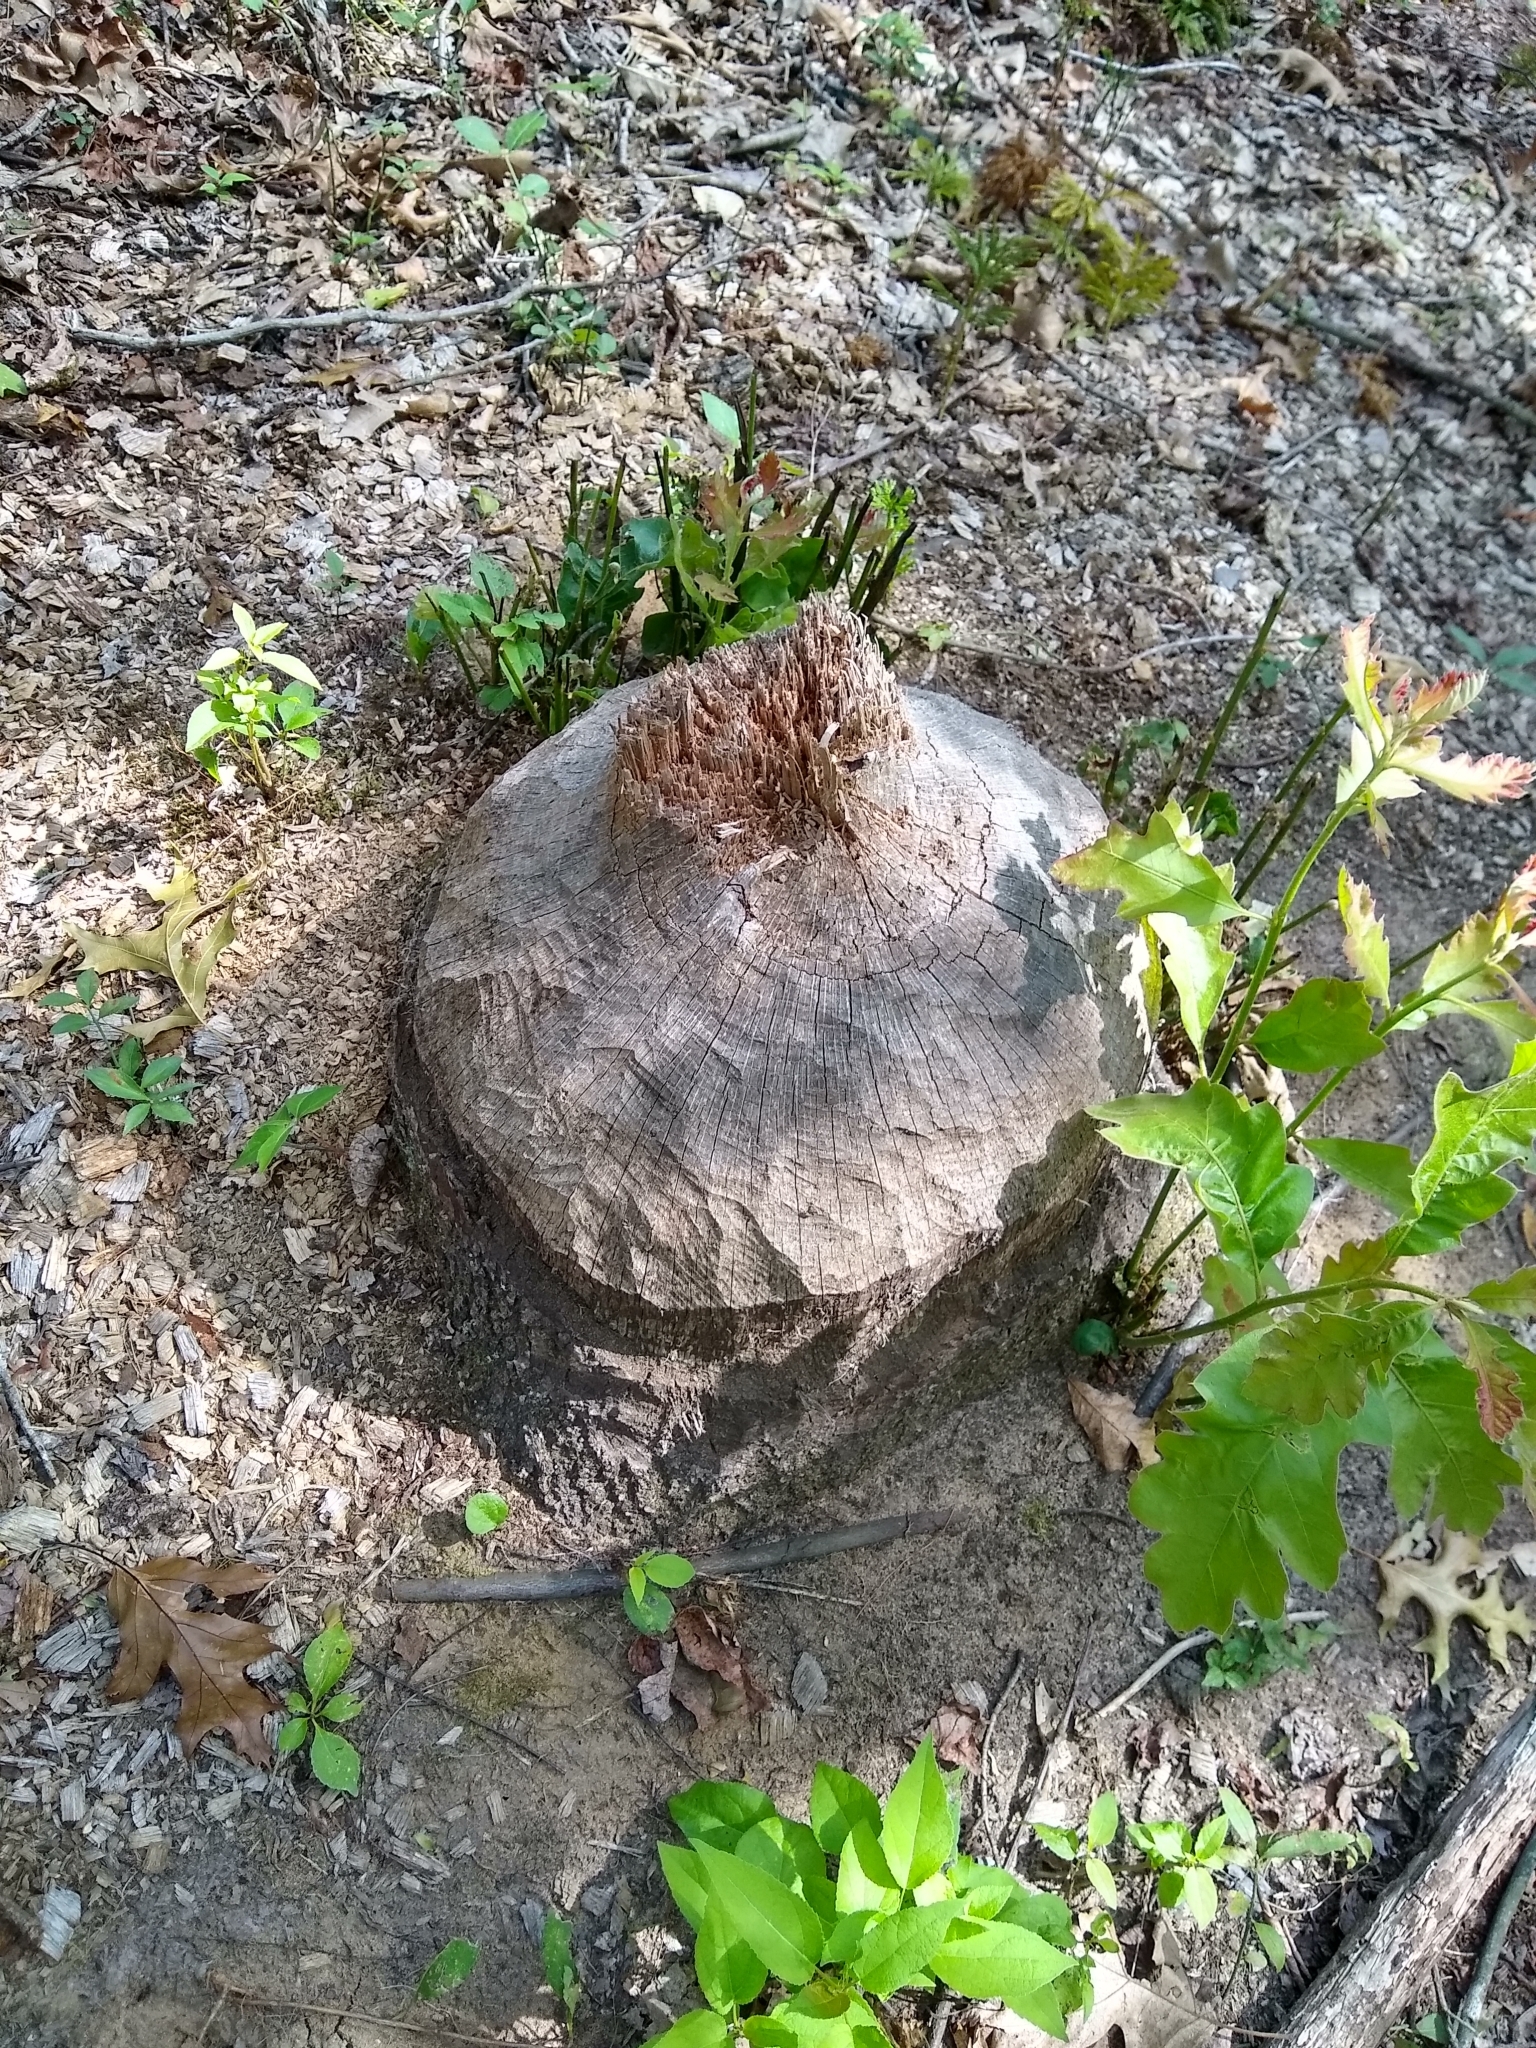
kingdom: Animalia
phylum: Chordata
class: Mammalia
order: Rodentia
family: Castoridae
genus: Castor
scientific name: Castor canadensis
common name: American beaver
